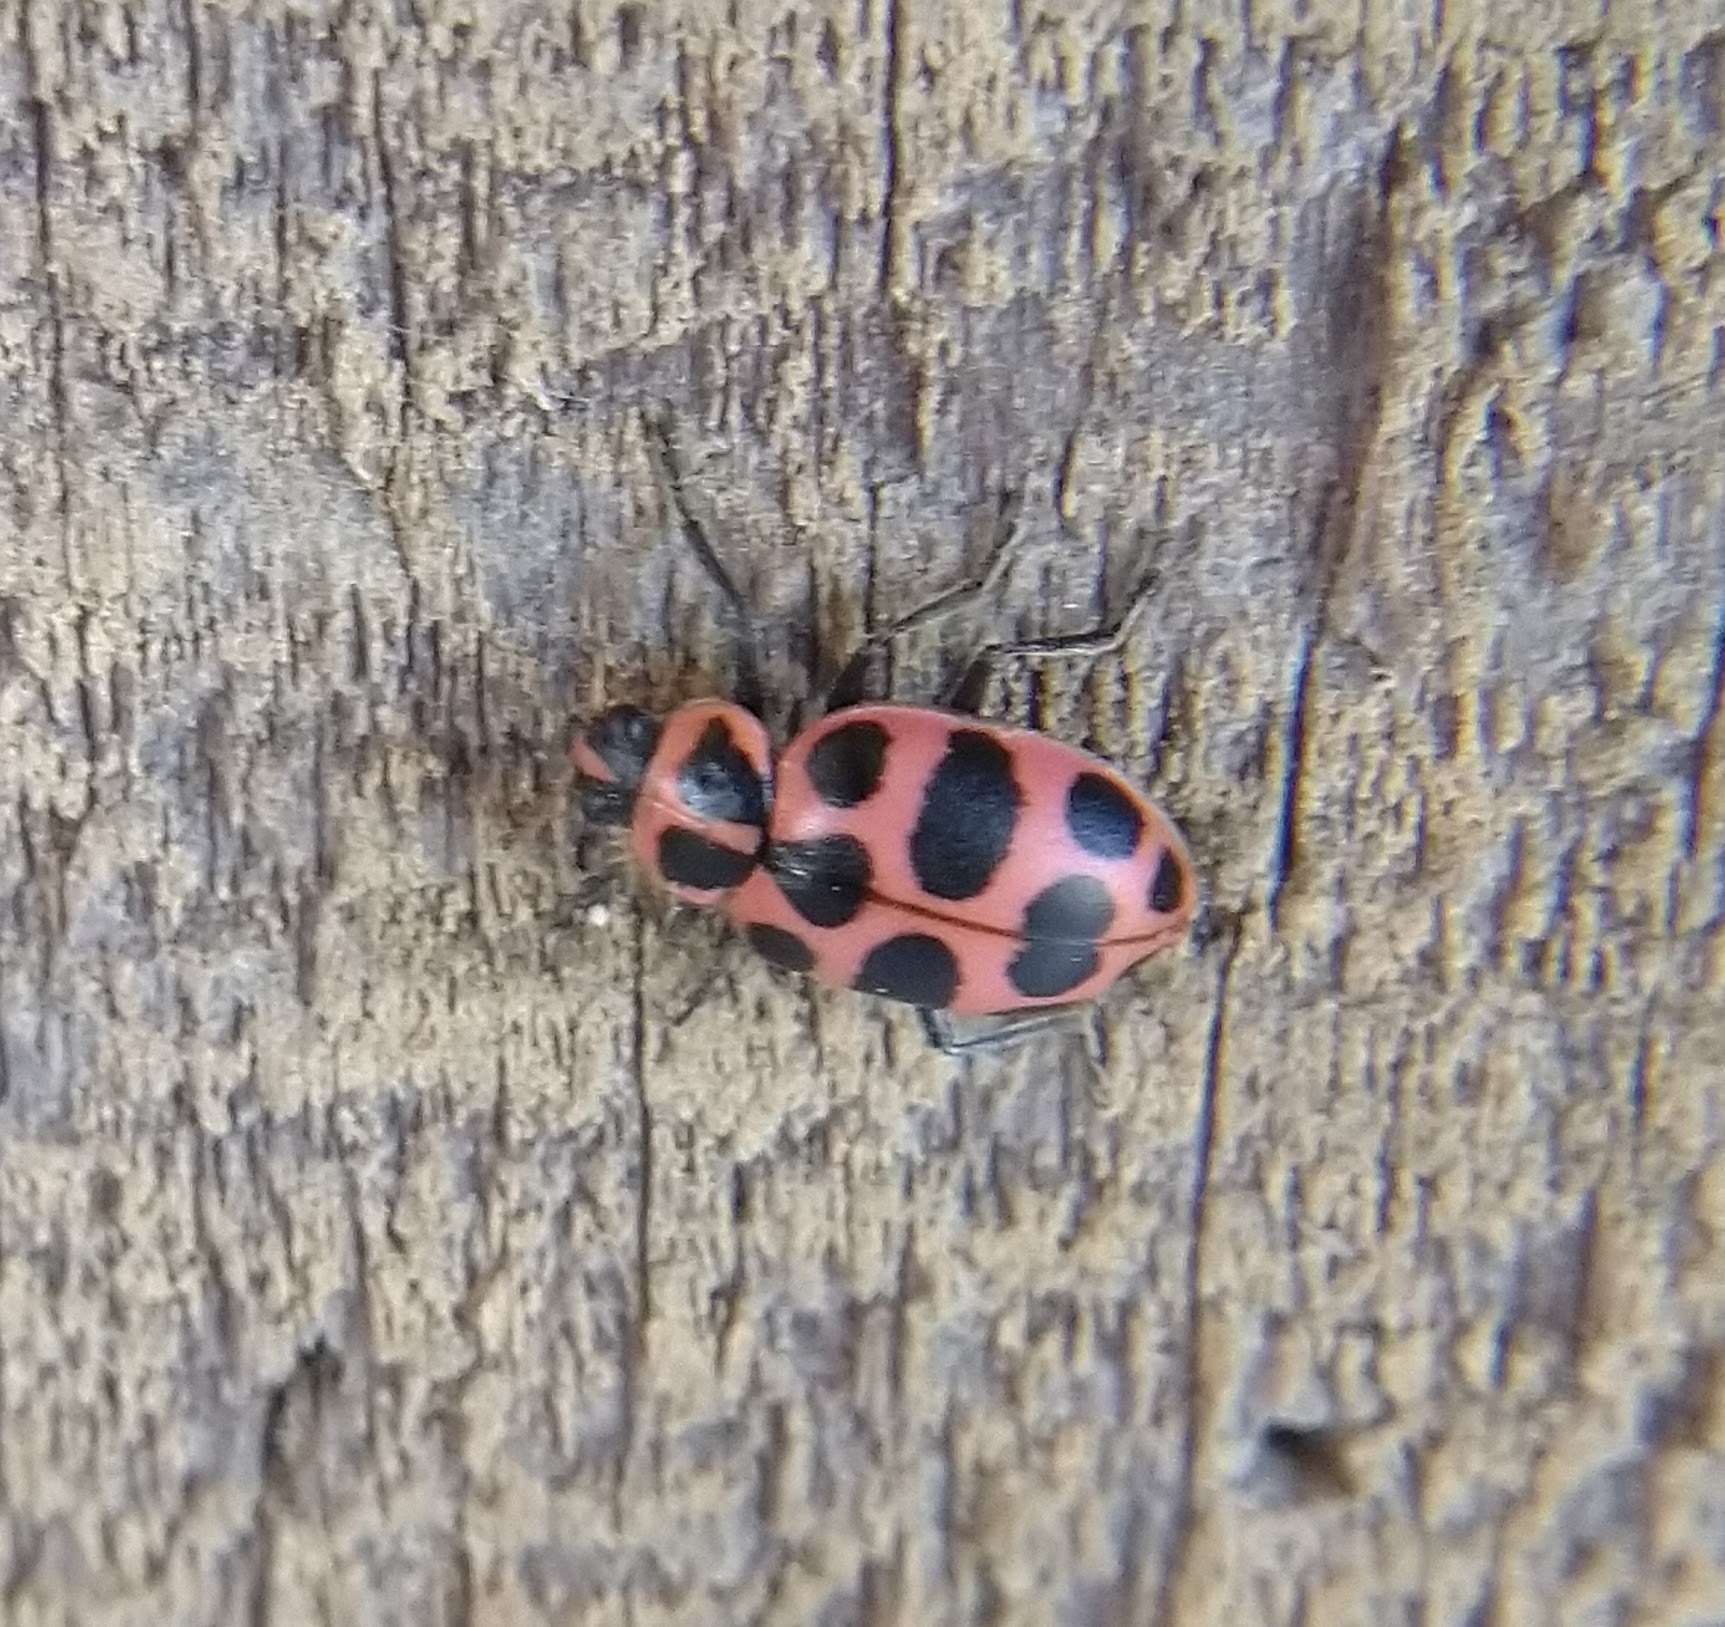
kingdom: Animalia
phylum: Arthropoda
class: Insecta
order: Coleoptera
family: Coccinellidae
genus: Coleomegilla
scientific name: Coleomegilla maculata
